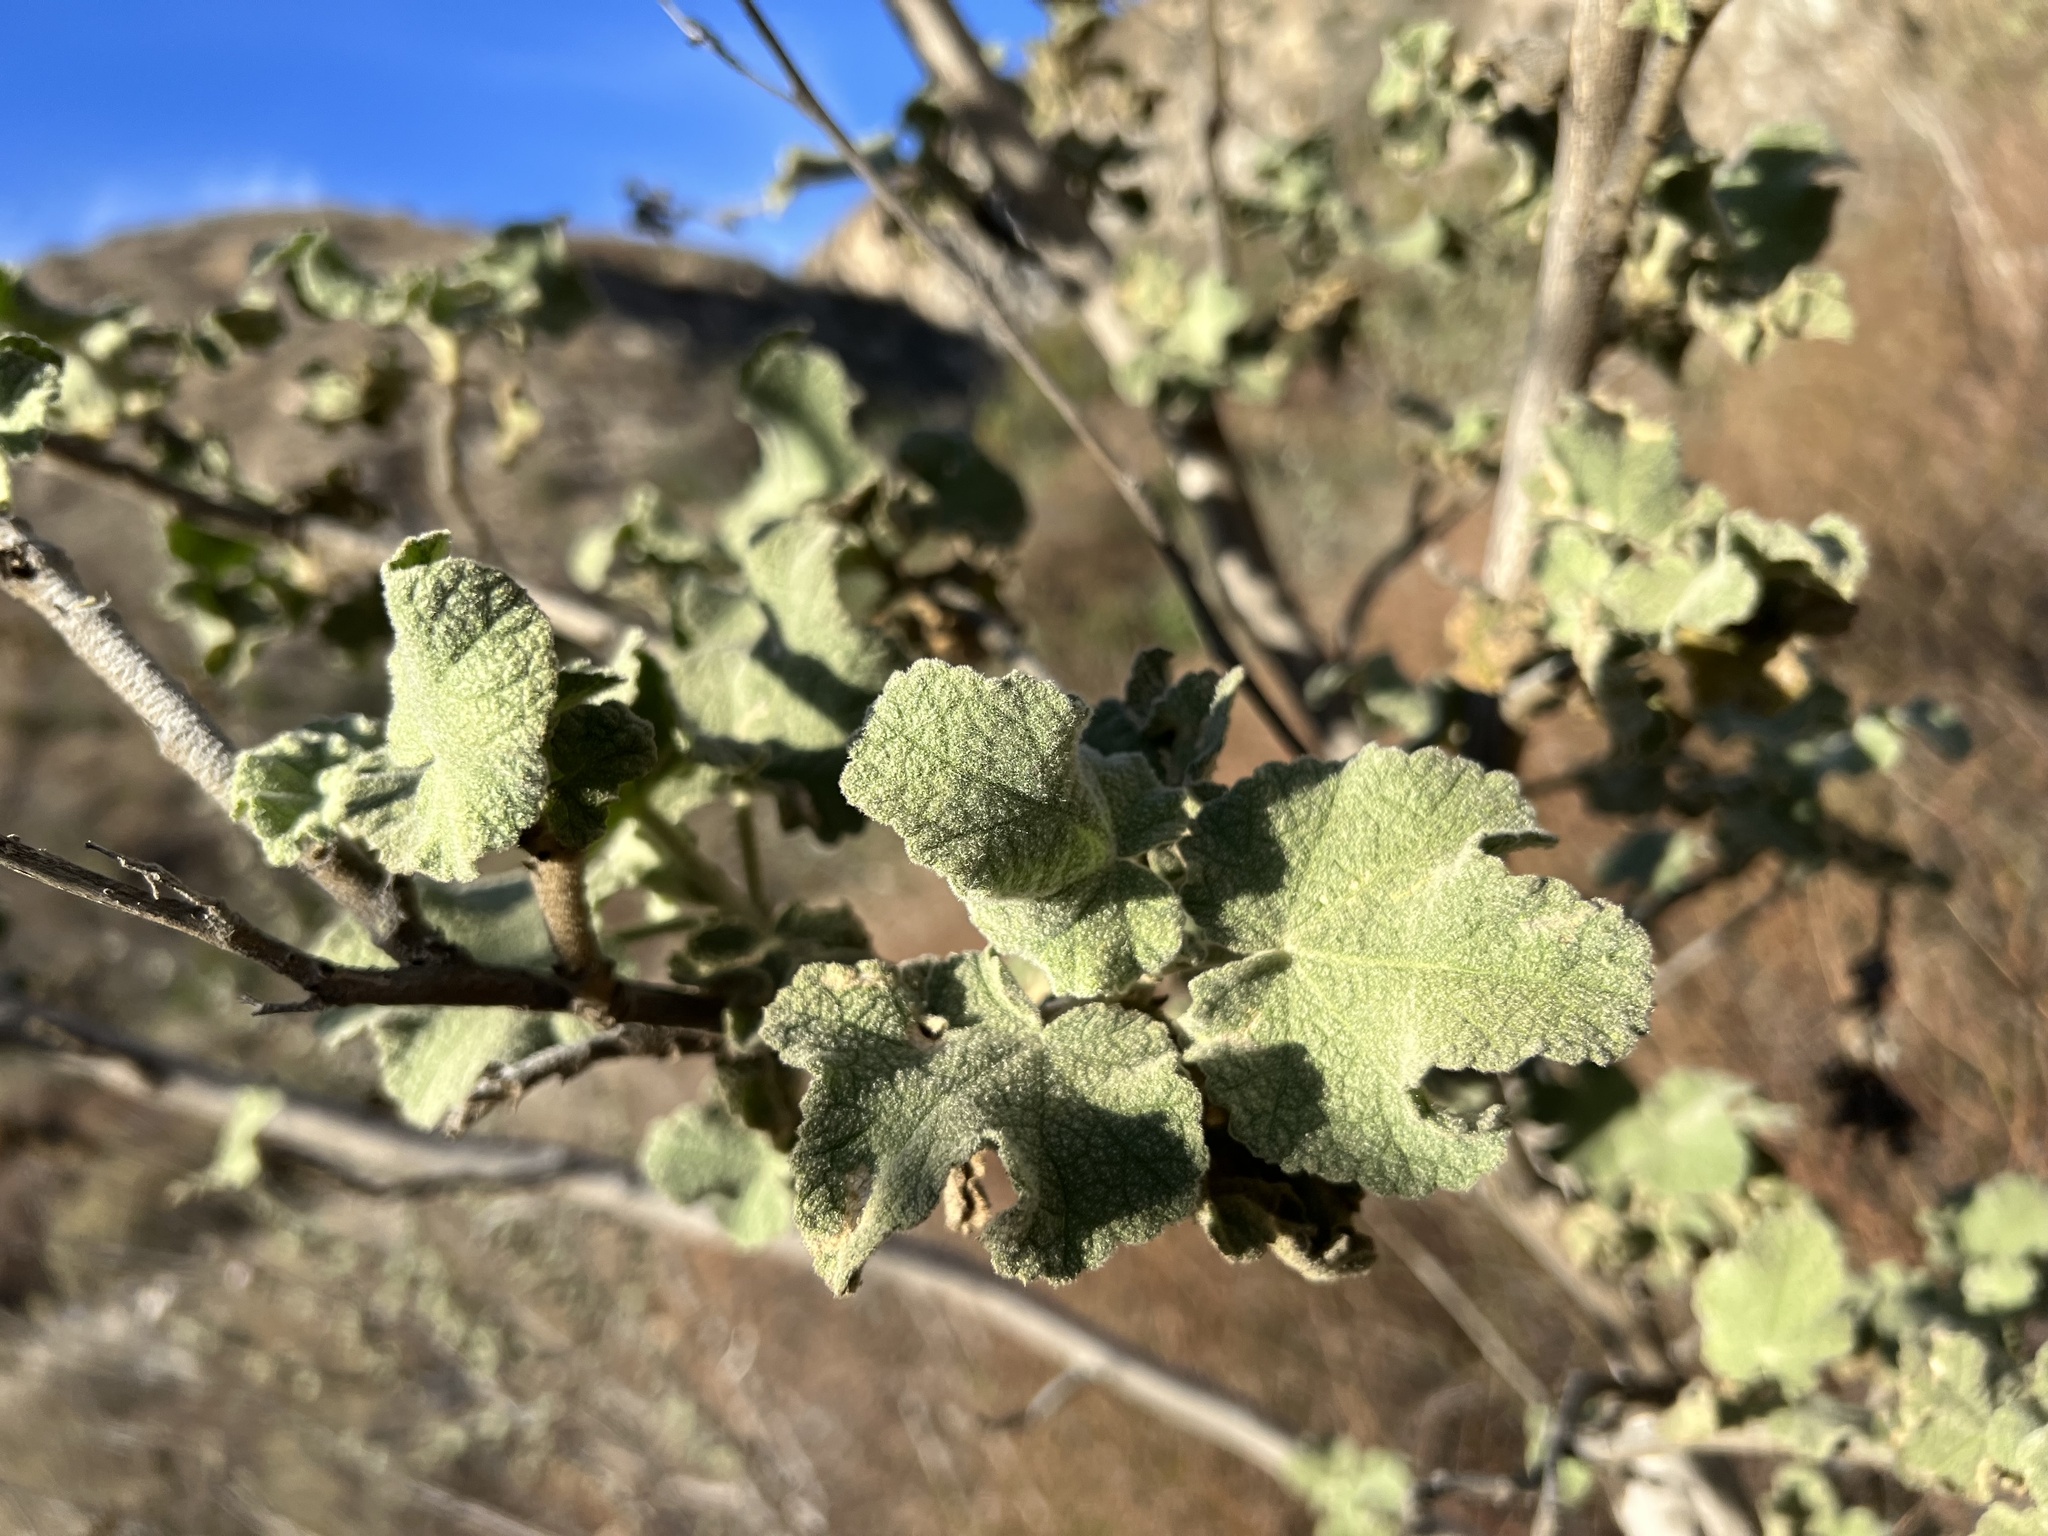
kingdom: Plantae
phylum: Tracheophyta
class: Magnoliopsida
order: Malvales
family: Malvaceae
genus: Malacothamnus
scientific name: Malacothamnus davidsonii
